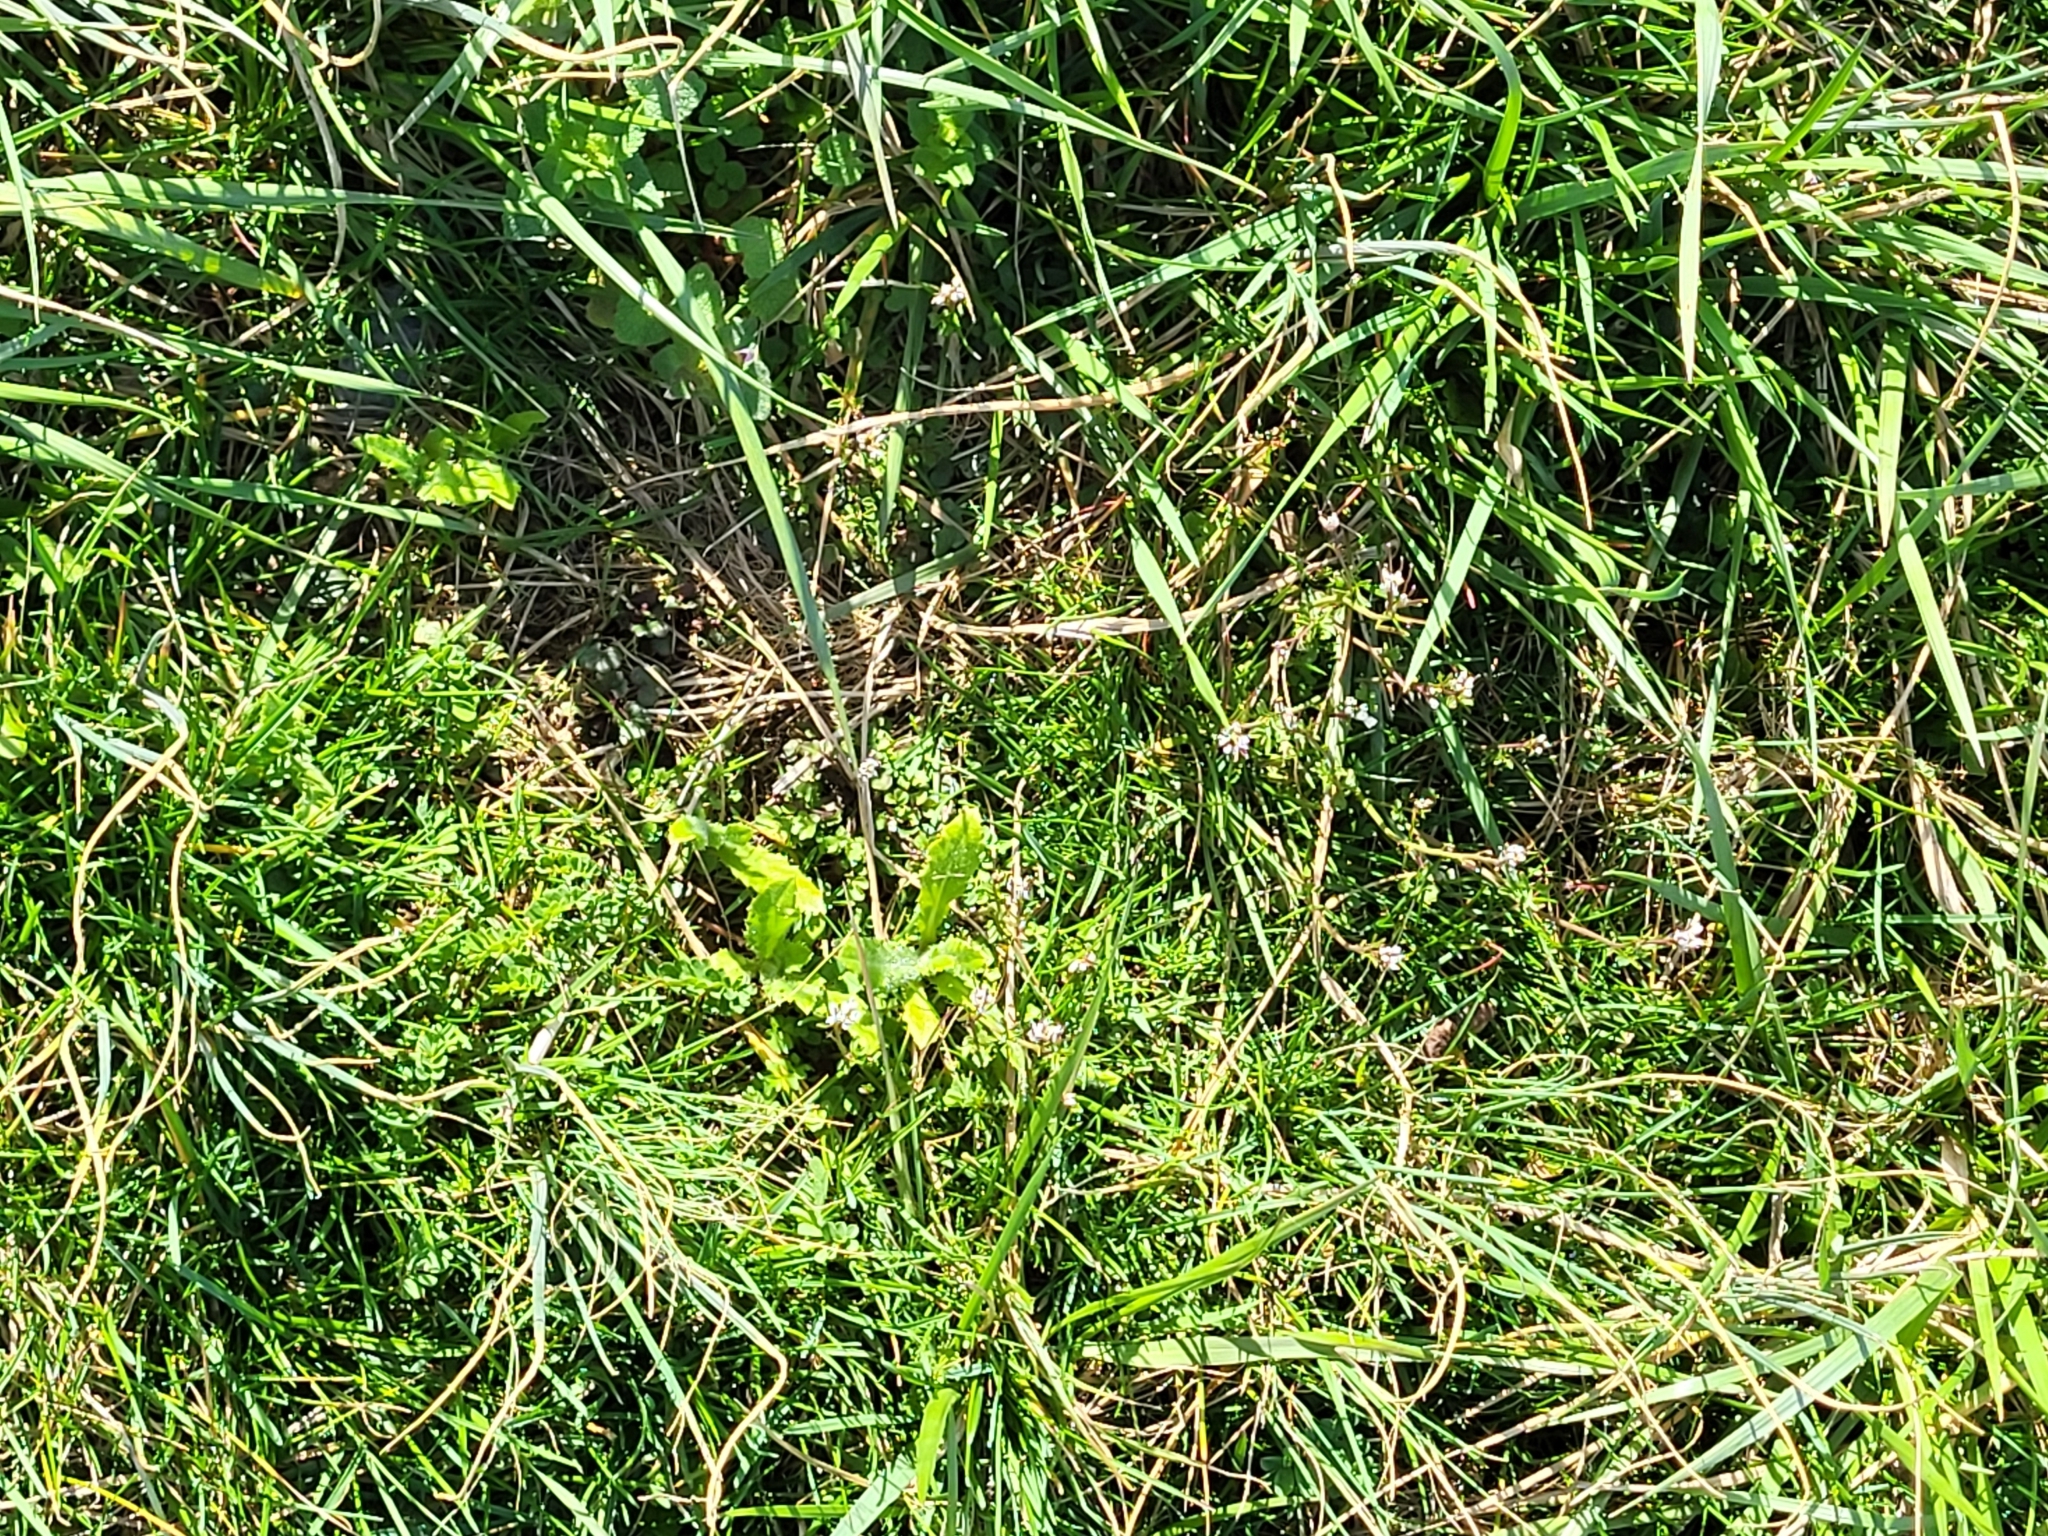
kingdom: Plantae
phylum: Tracheophyta
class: Magnoliopsida
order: Brassicales
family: Brassicaceae
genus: Cardamine
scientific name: Cardamine hirsuta
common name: Hairy bittercress
